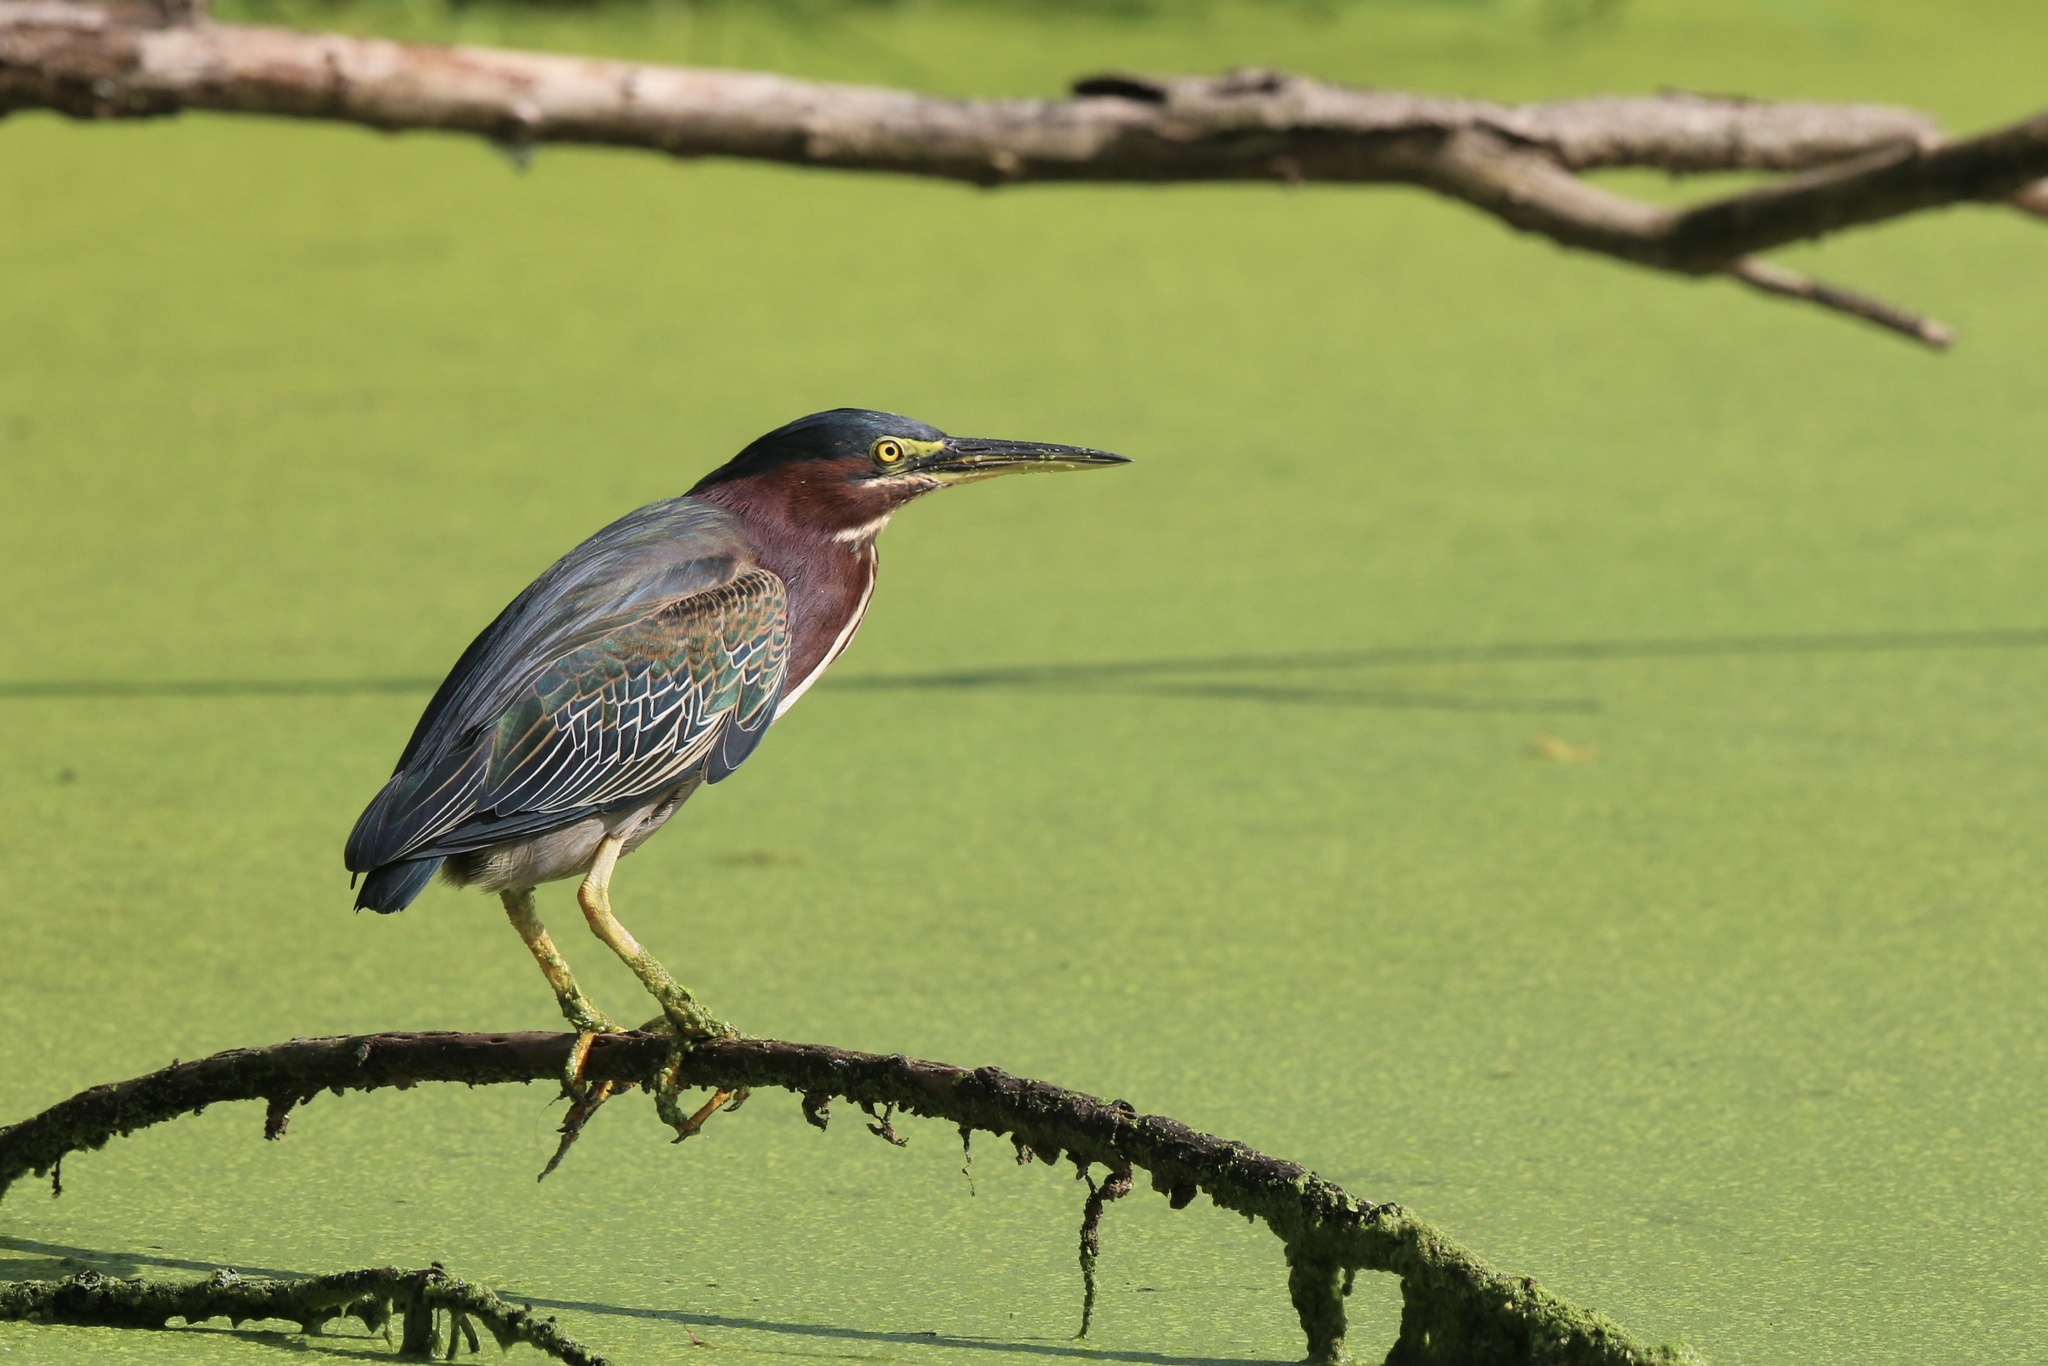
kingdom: Animalia
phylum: Chordata
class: Aves
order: Pelecaniformes
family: Ardeidae
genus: Butorides
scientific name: Butorides virescens
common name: Green heron
